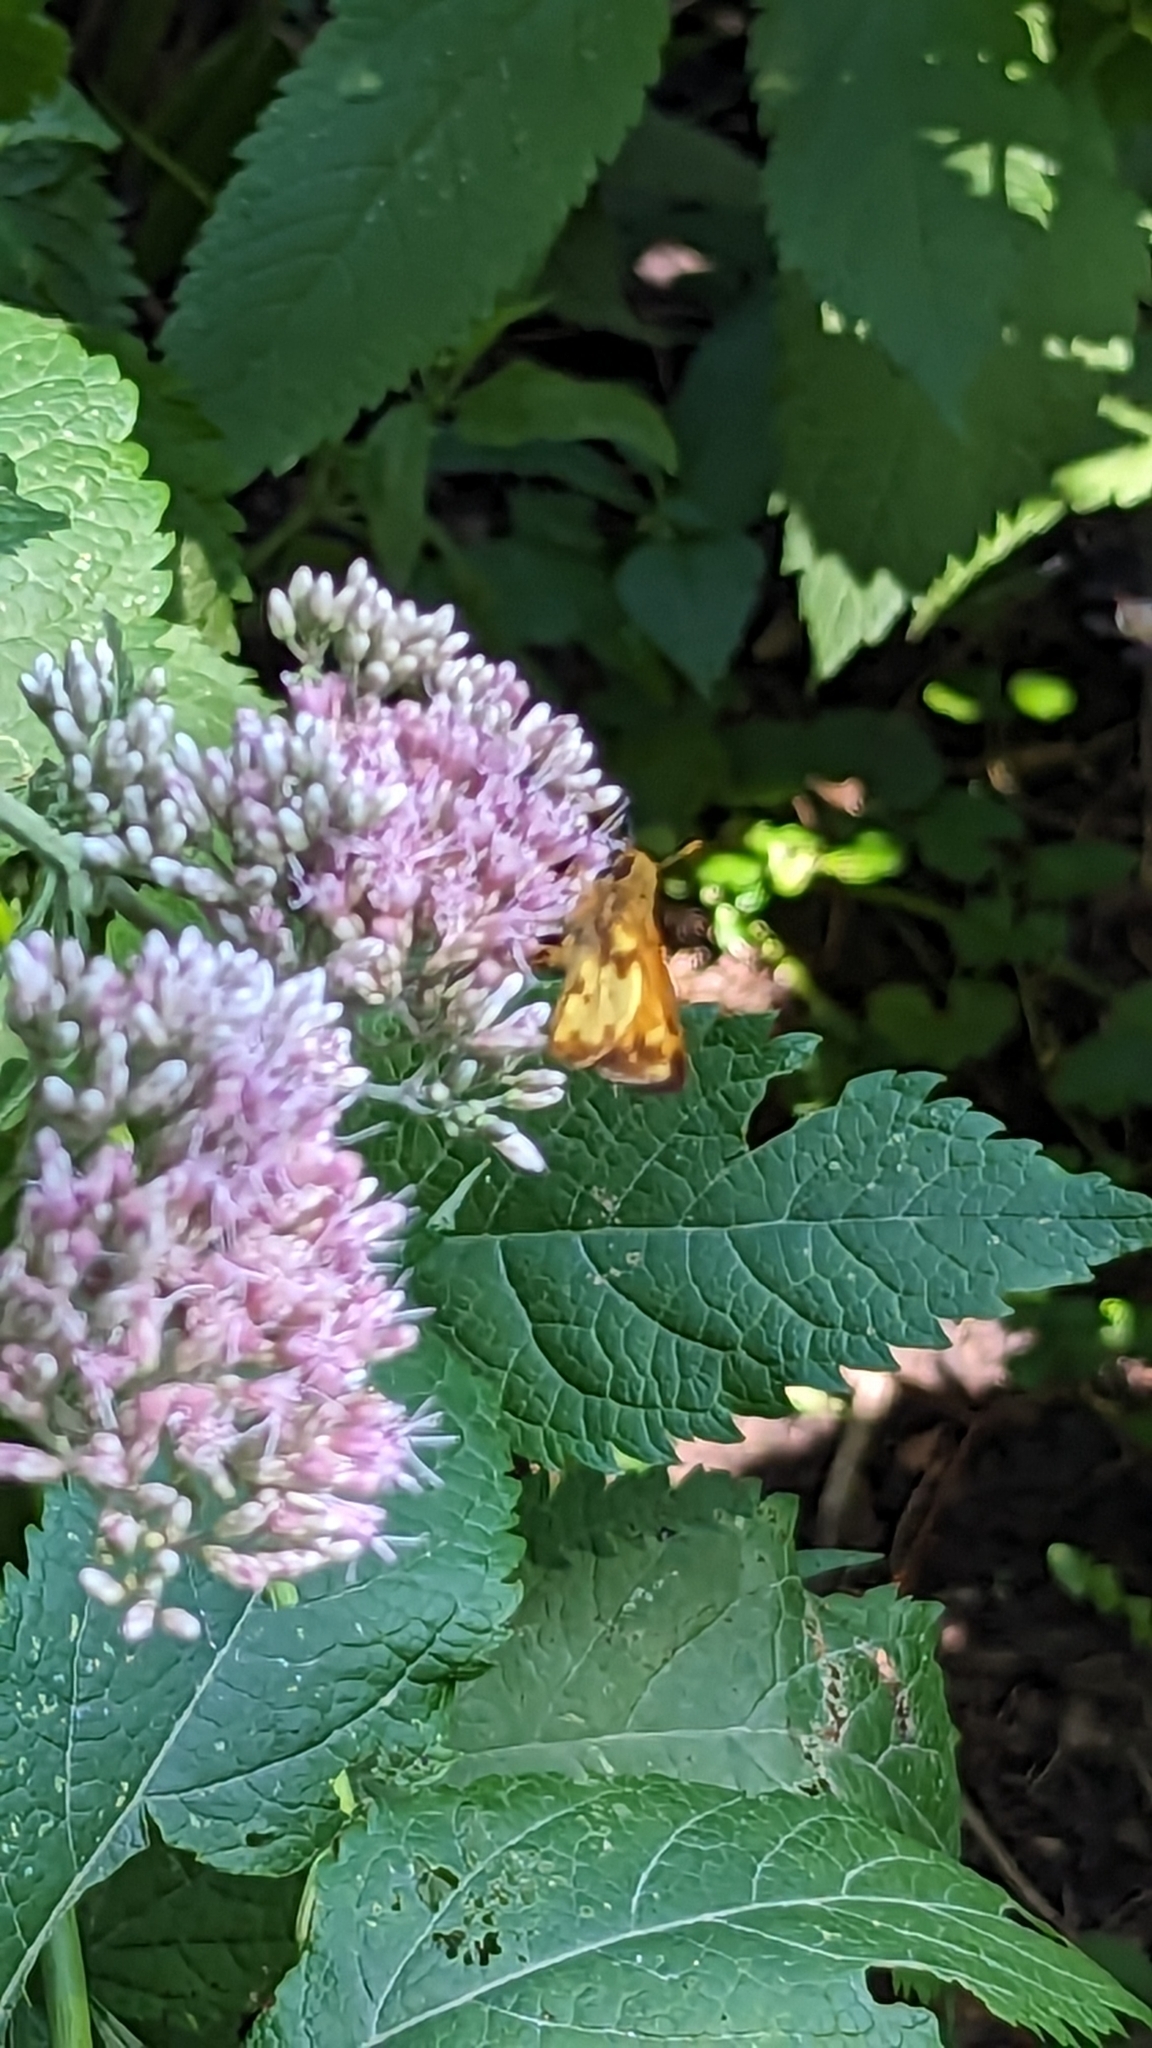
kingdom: Animalia
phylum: Arthropoda
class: Insecta
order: Lepidoptera
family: Hesperiidae
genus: Lon
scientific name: Lon zabulon
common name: Zabulon skipper
